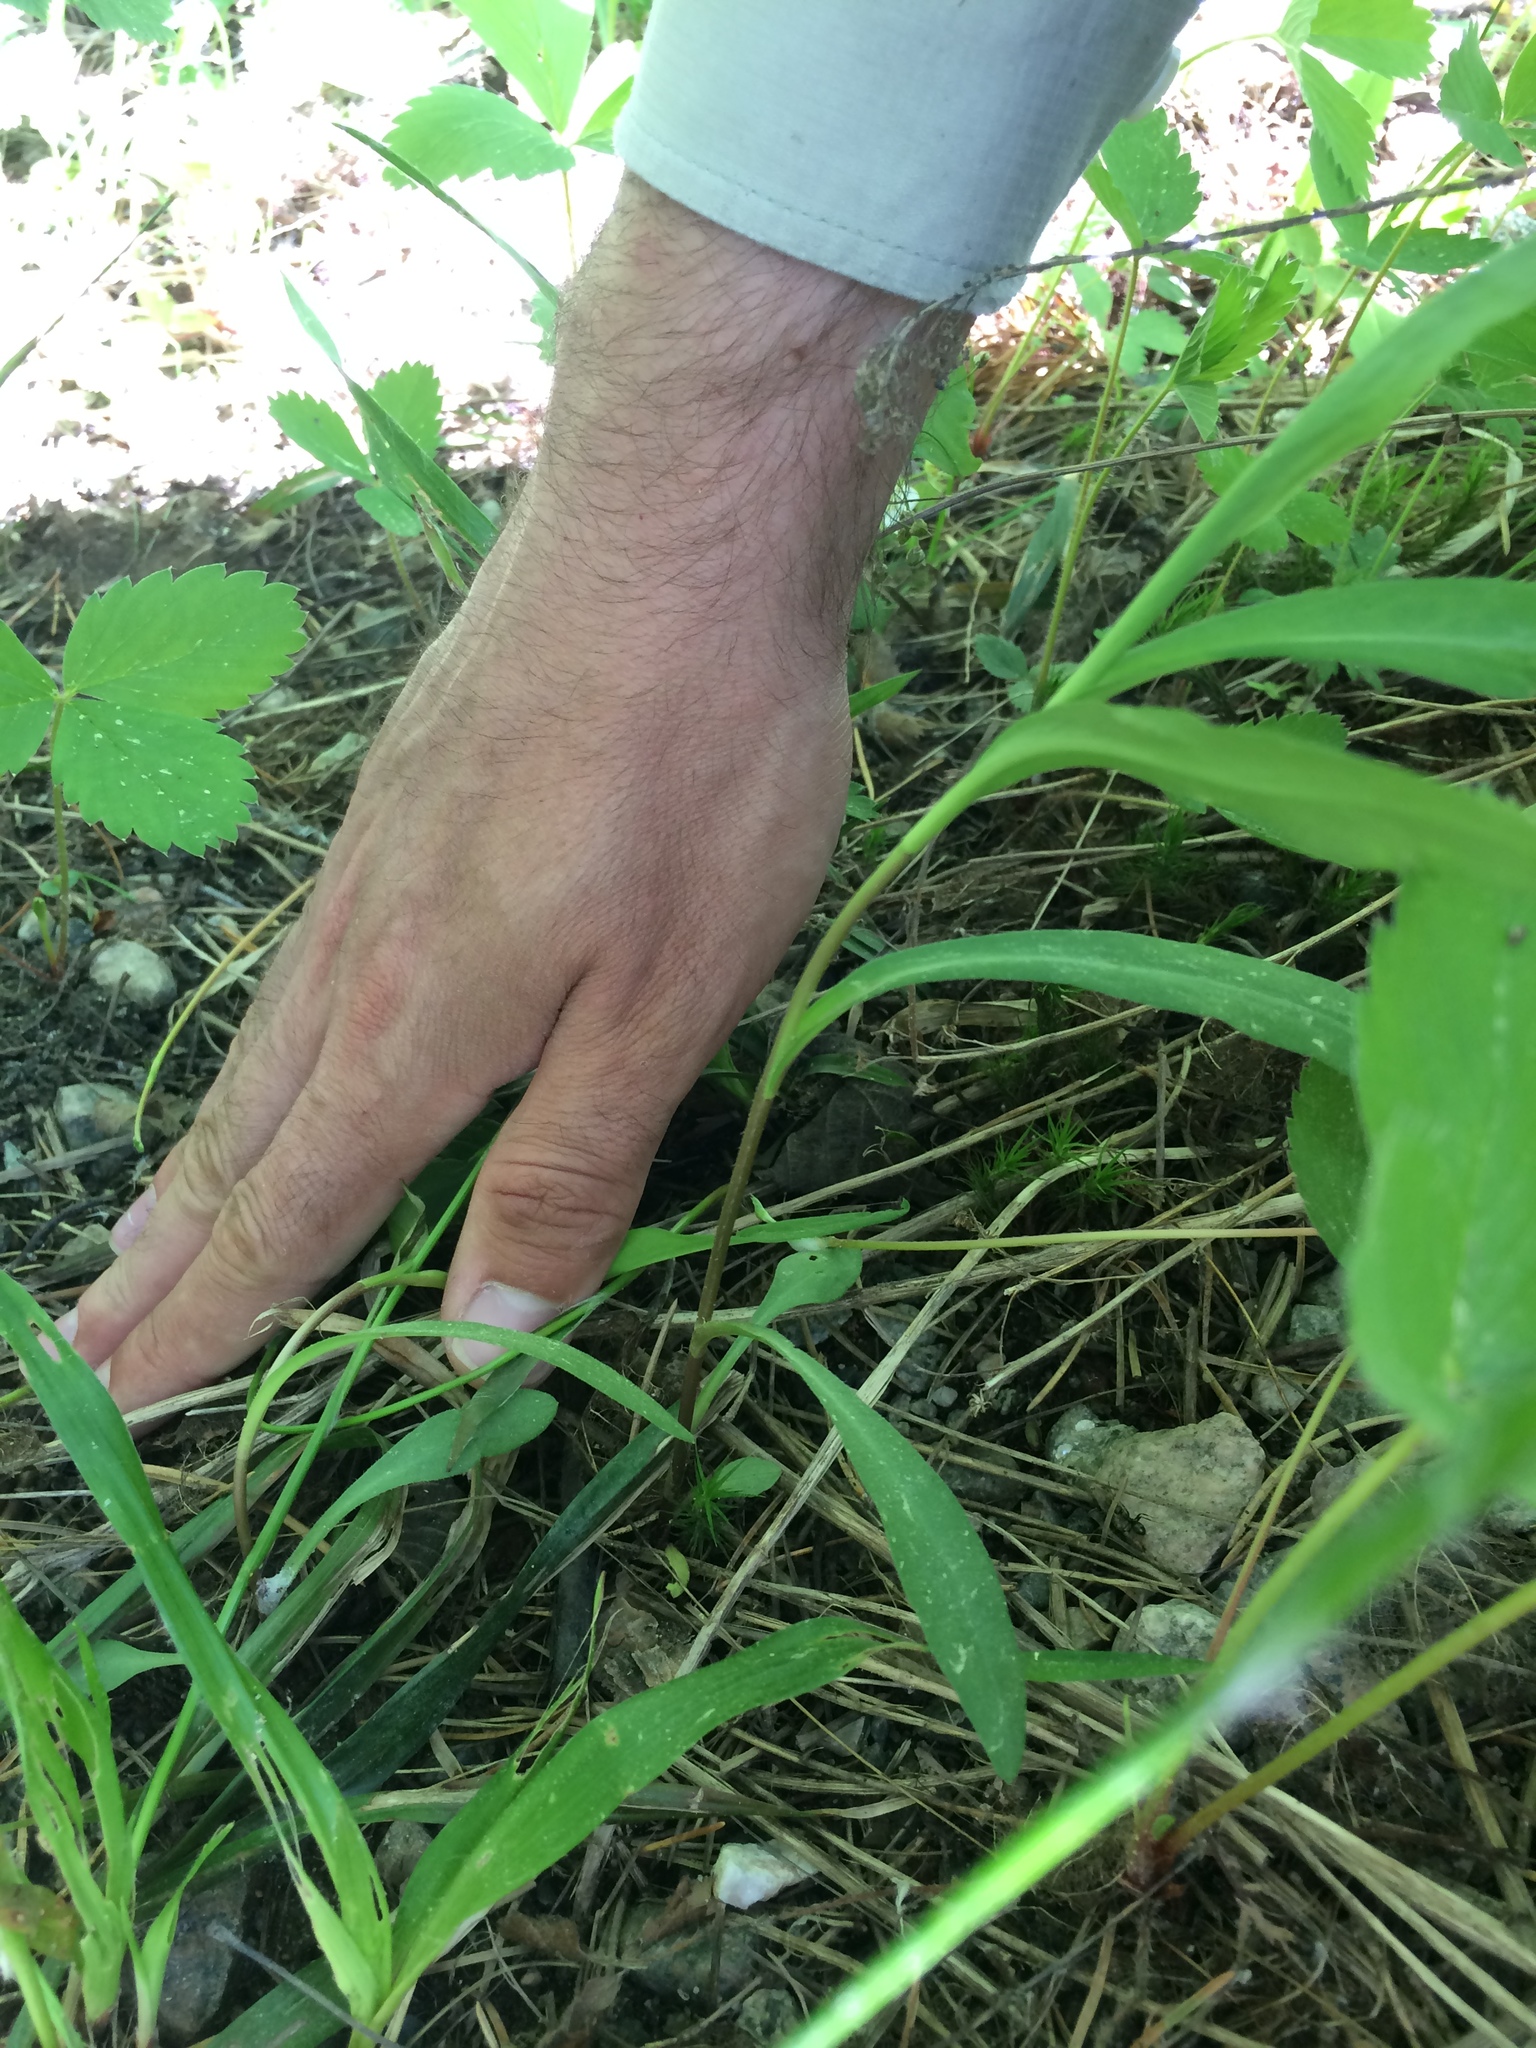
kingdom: Plantae
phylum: Tracheophyta
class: Liliopsida
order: Poales
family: Juncaceae
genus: Luzula
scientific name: Luzula acuminata
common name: Hairy woodrush
